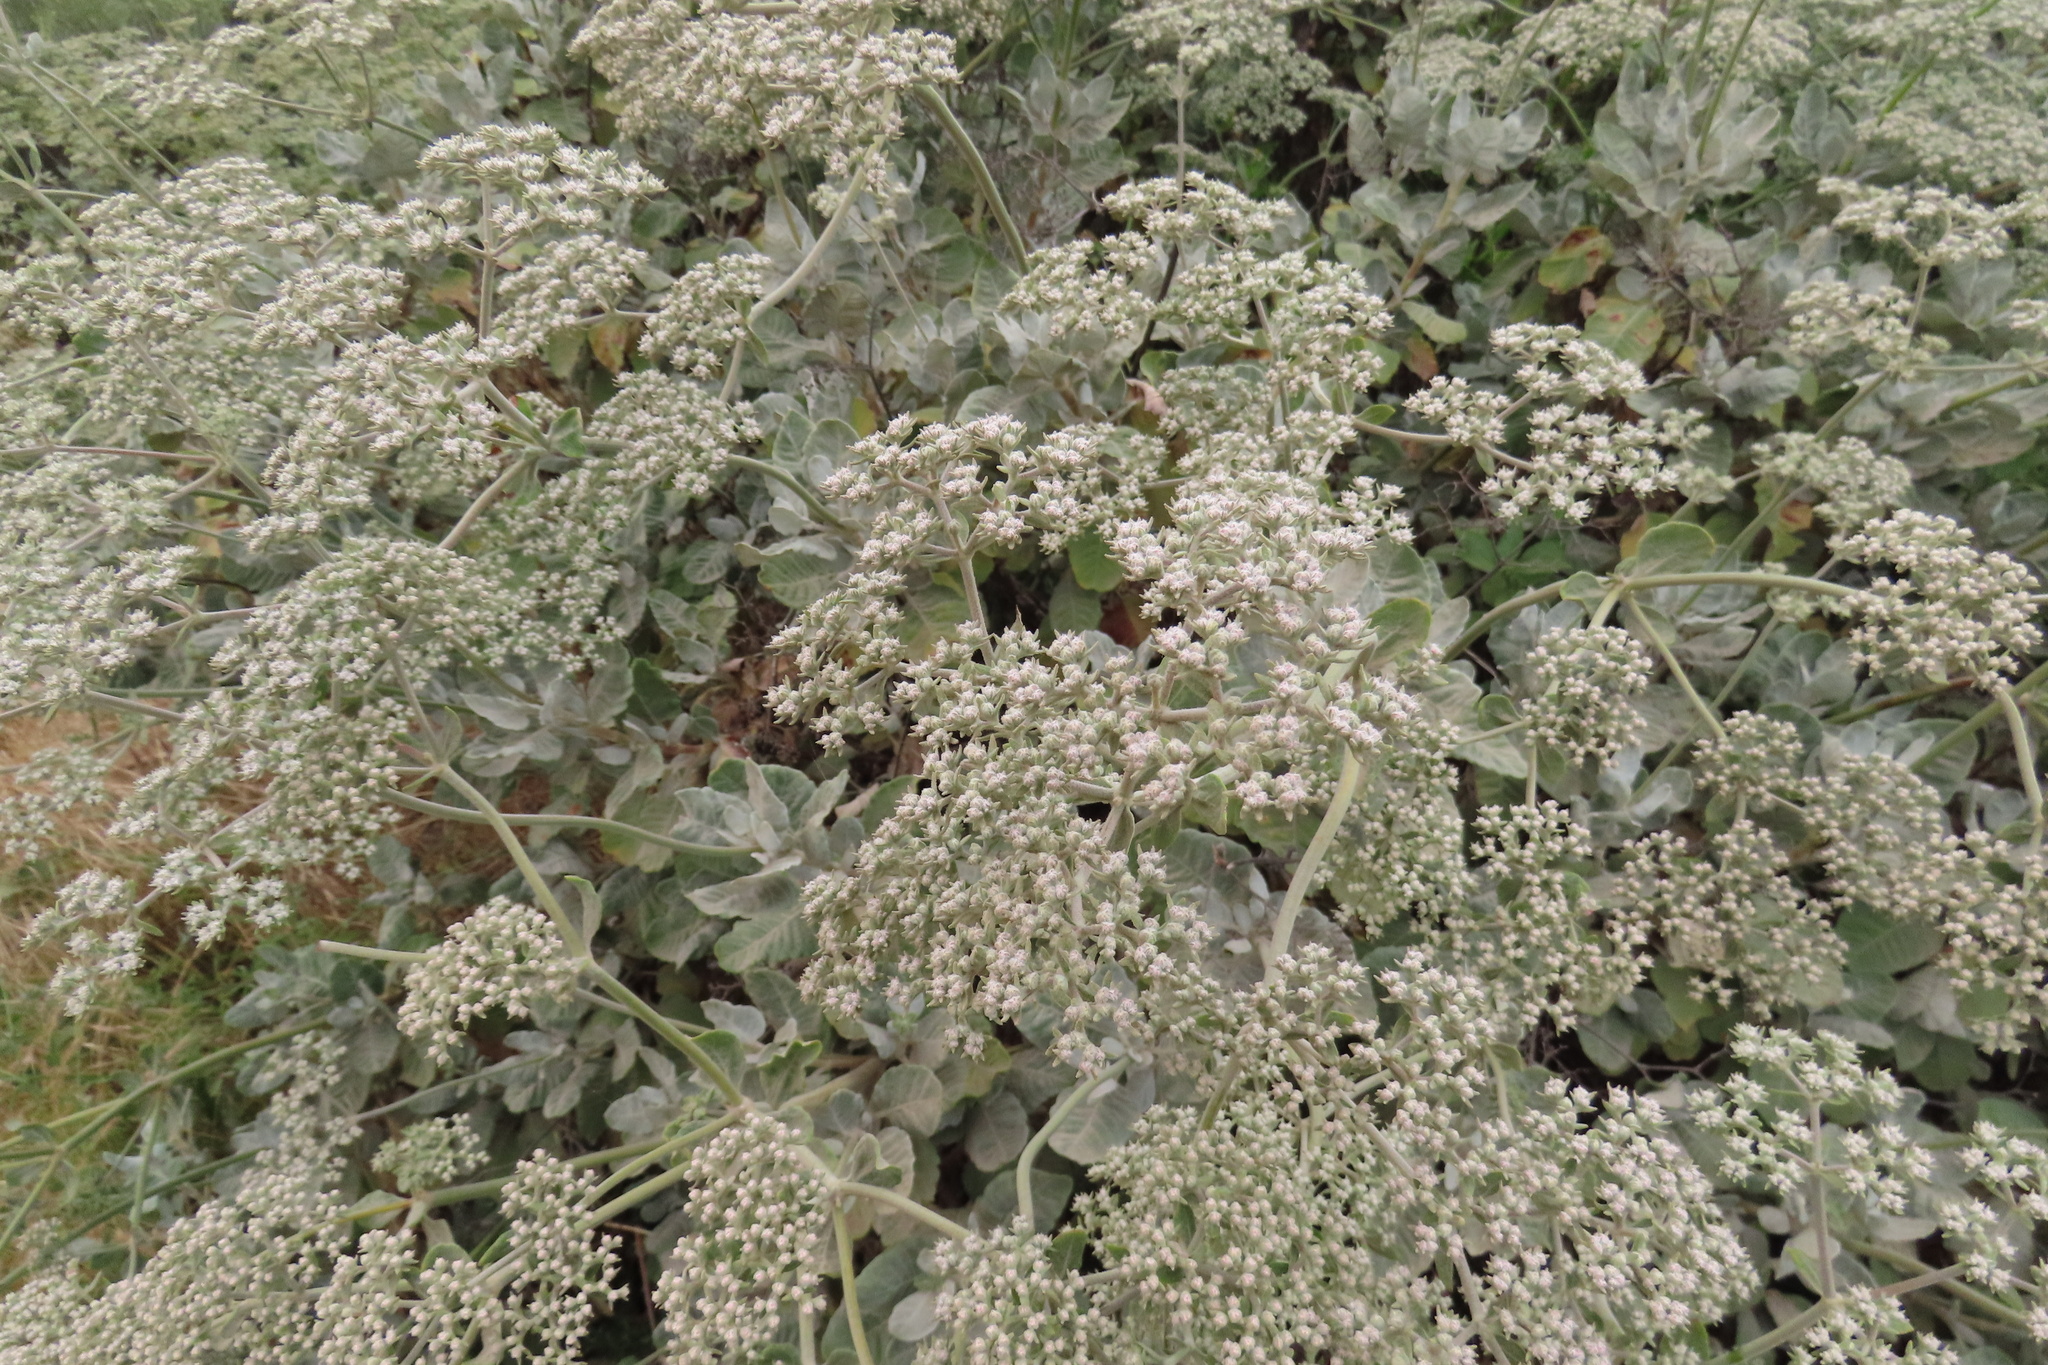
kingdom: Plantae
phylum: Tracheophyta
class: Magnoliopsida
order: Caryophyllales
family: Polygonaceae
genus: Eriogonum
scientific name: Eriogonum giganteum
